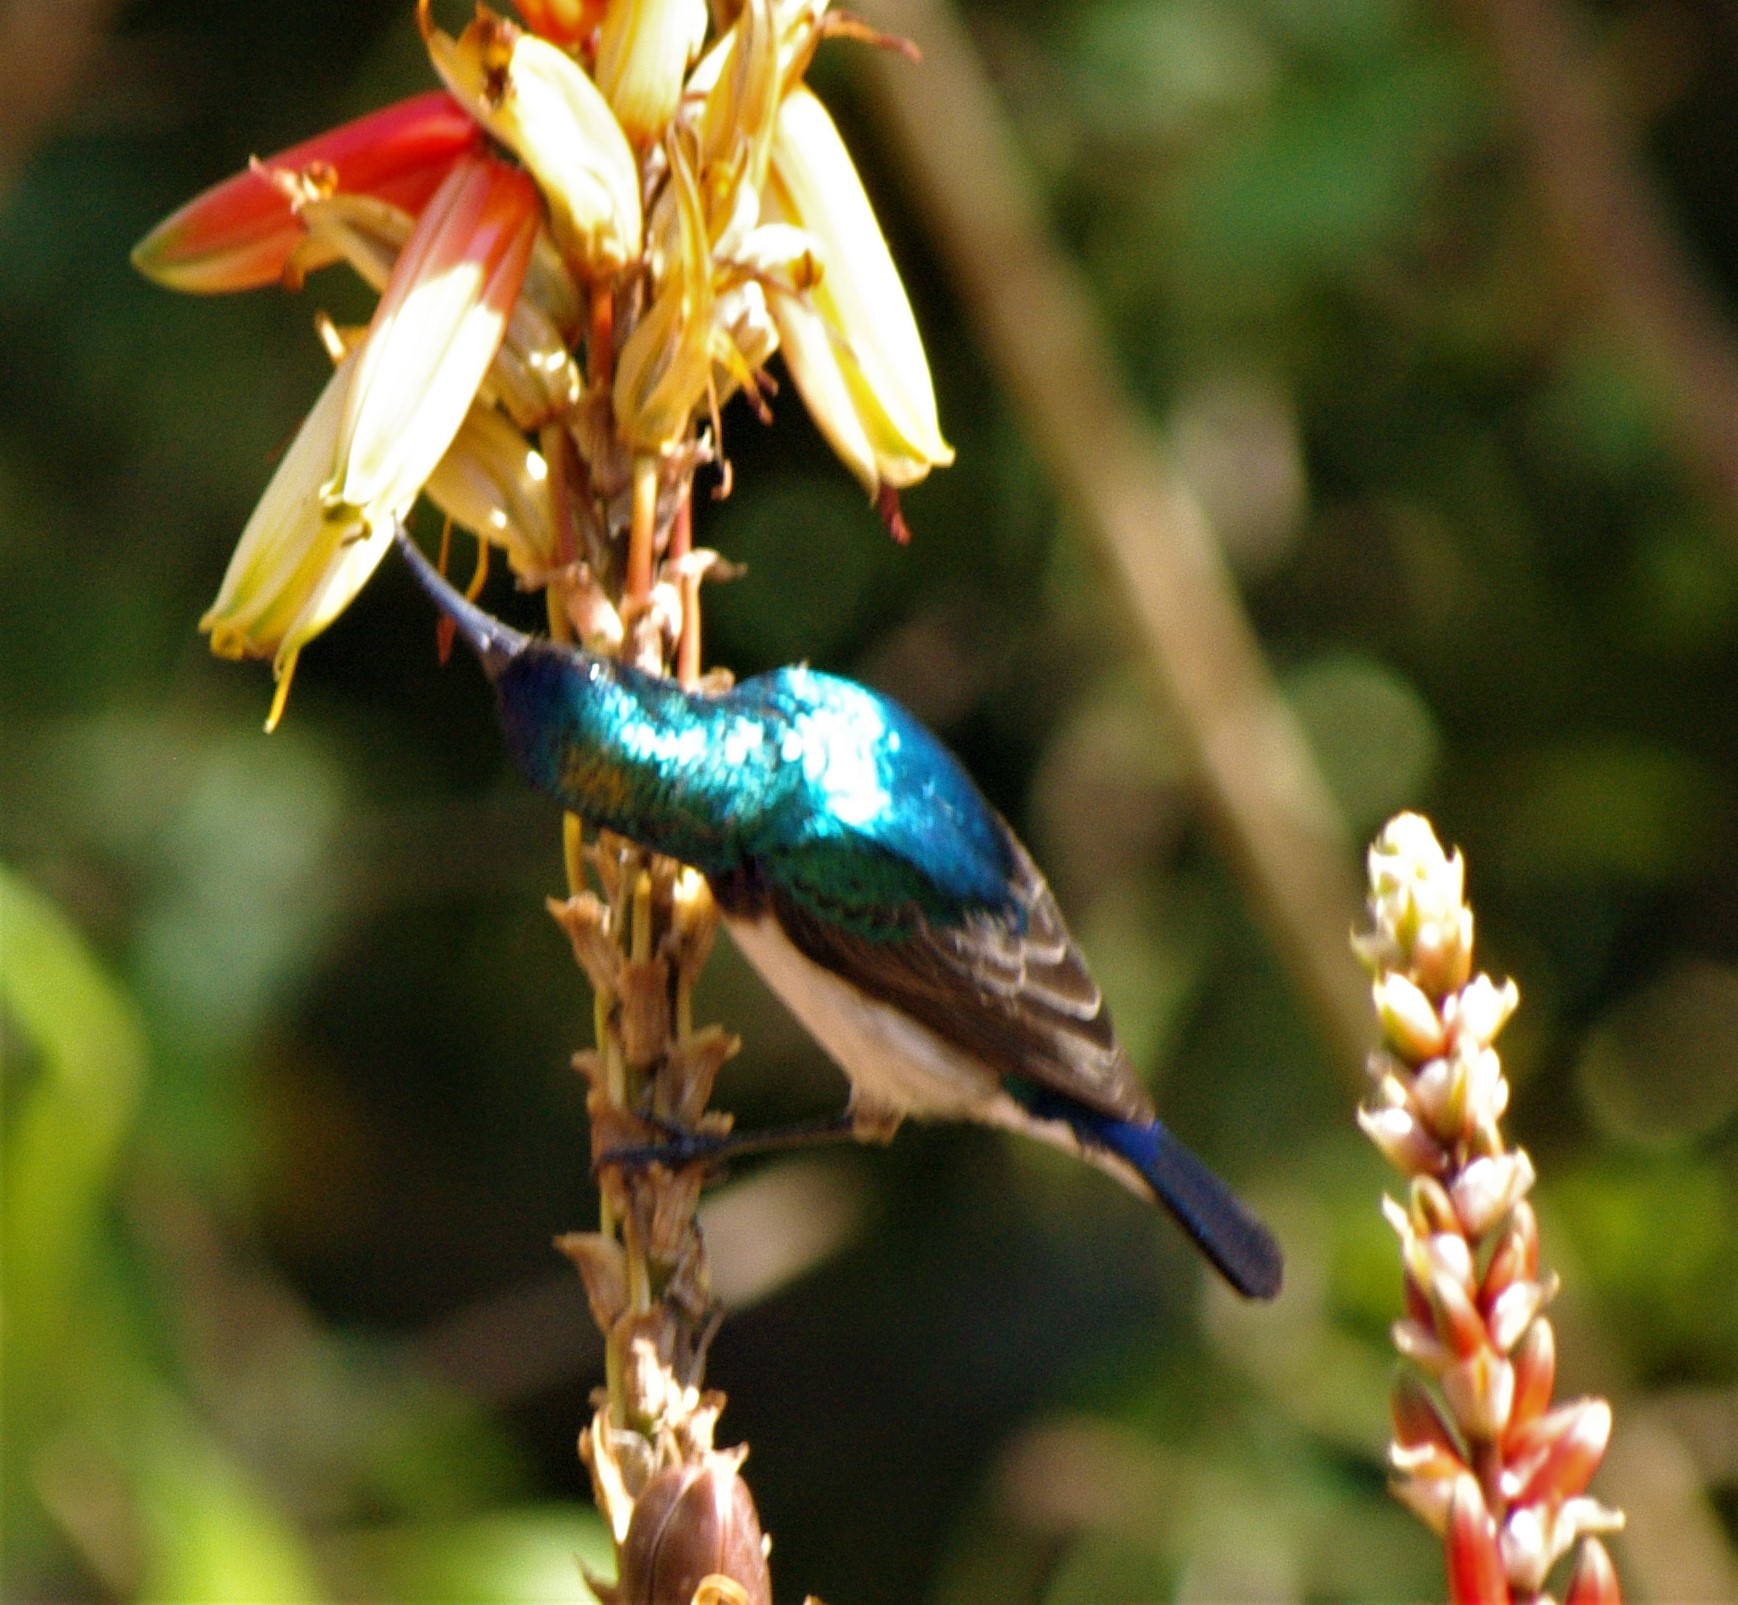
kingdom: Animalia
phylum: Chordata
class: Aves
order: Passeriformes
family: Nectariniidae
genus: Cinnyris
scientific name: Cinnyris talatala
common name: White-bellied sunbird
